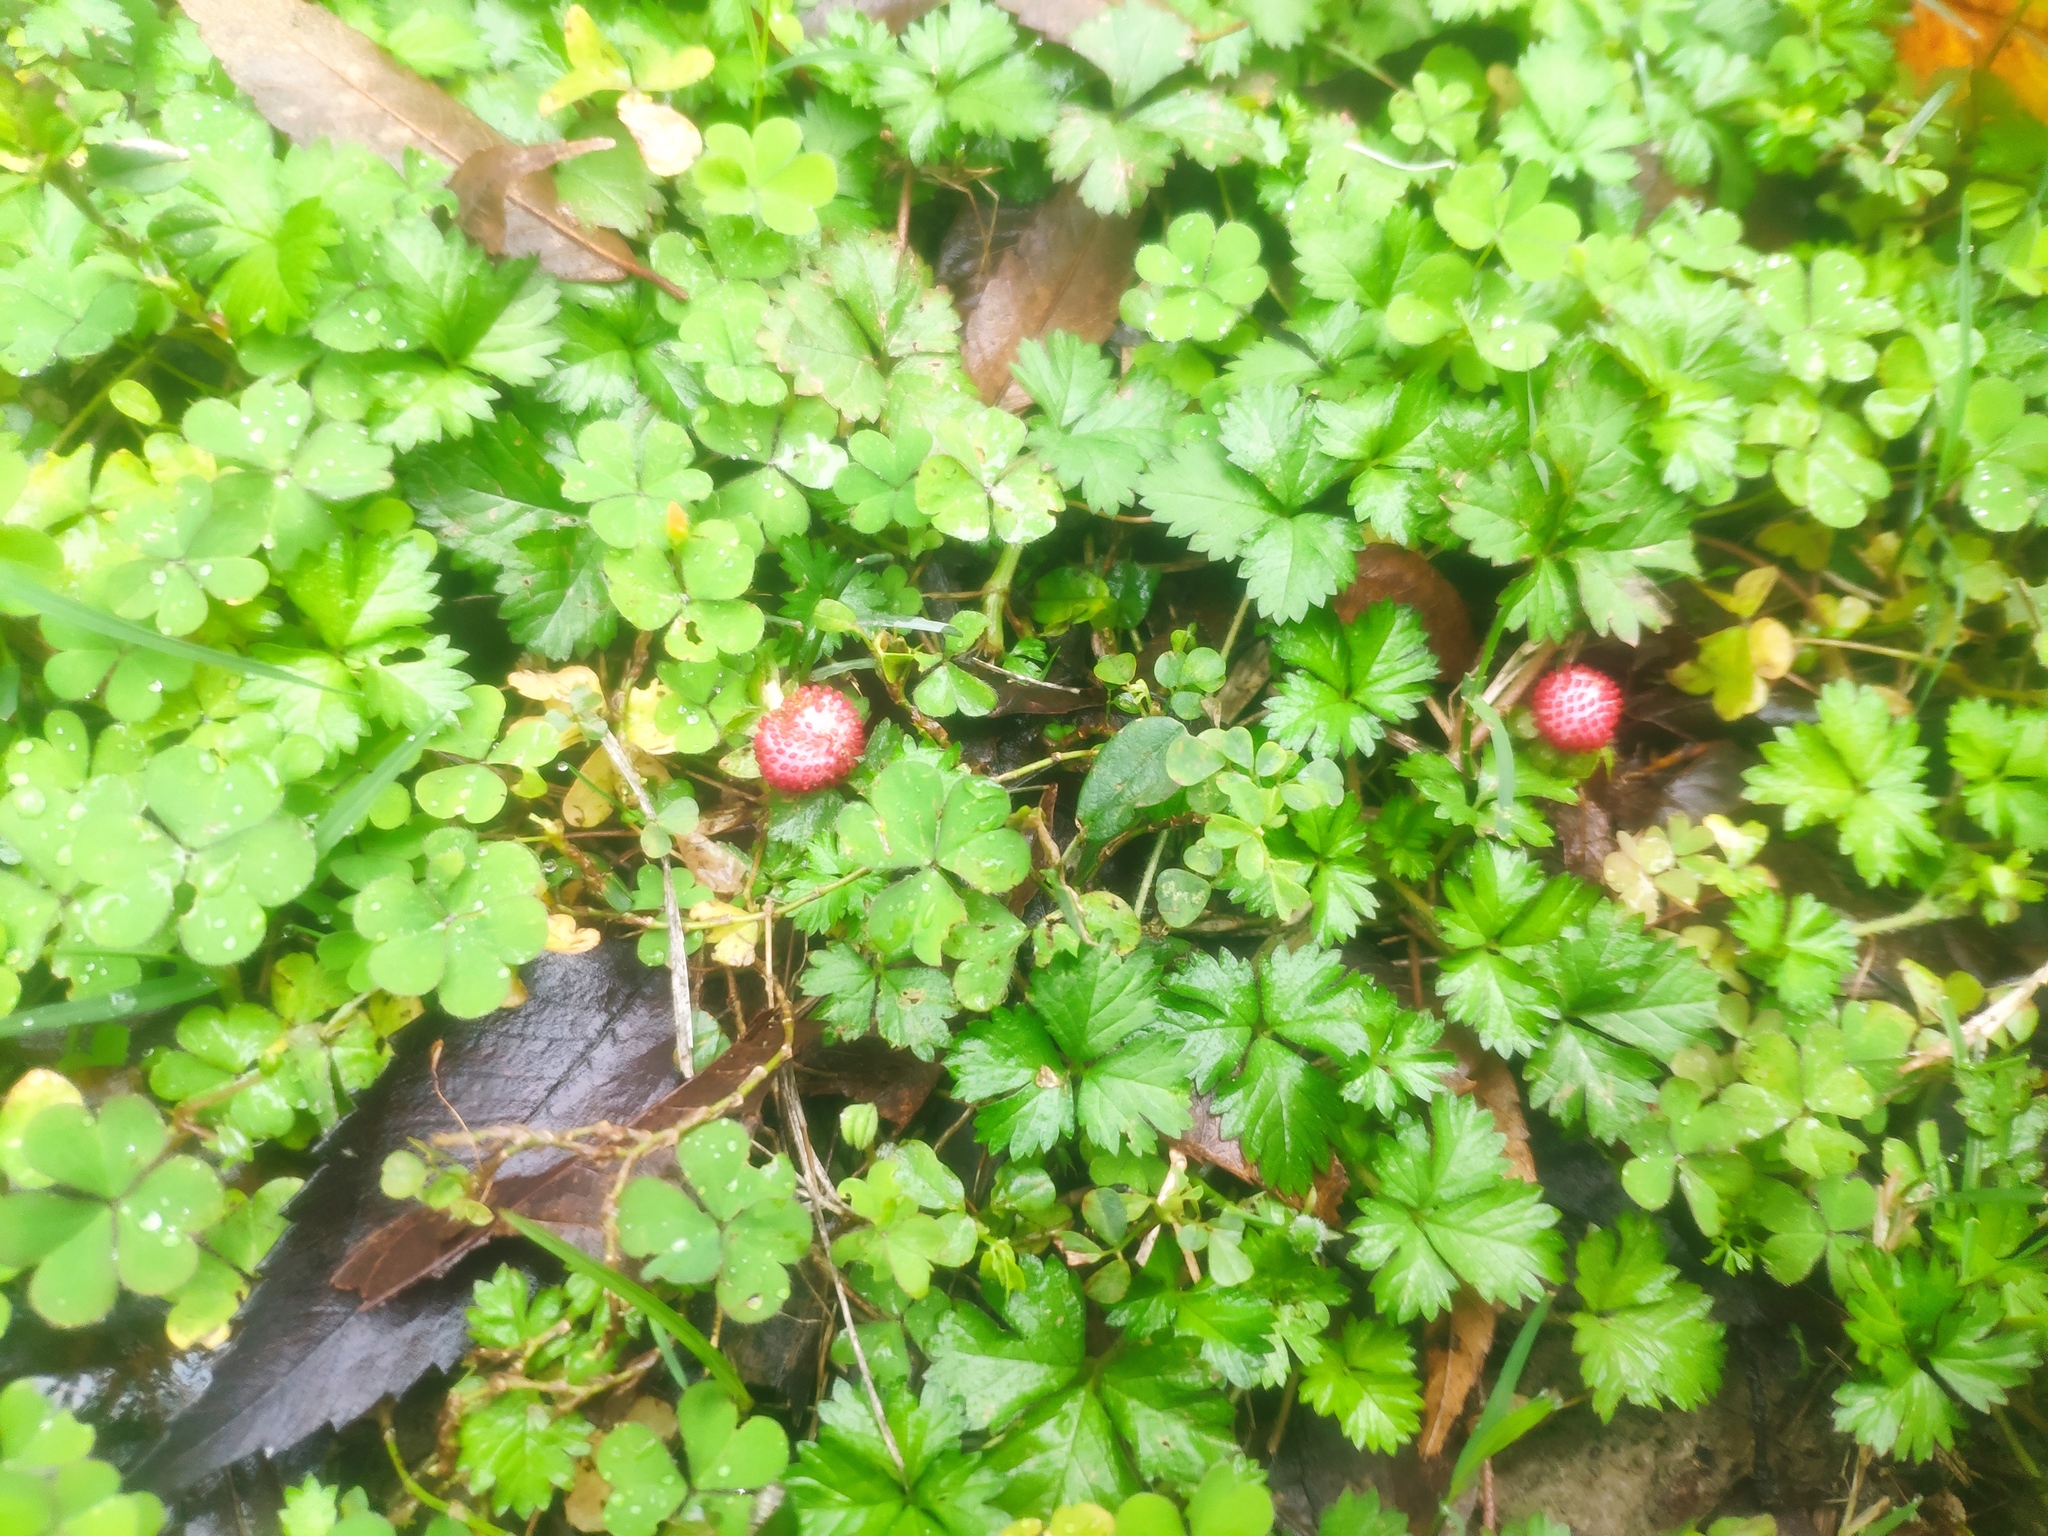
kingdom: Plantae
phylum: Tracheophyta
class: Magnoliopsida
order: Rosales
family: Rosaceae
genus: Potentilla
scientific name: Potentilla wallichiana
